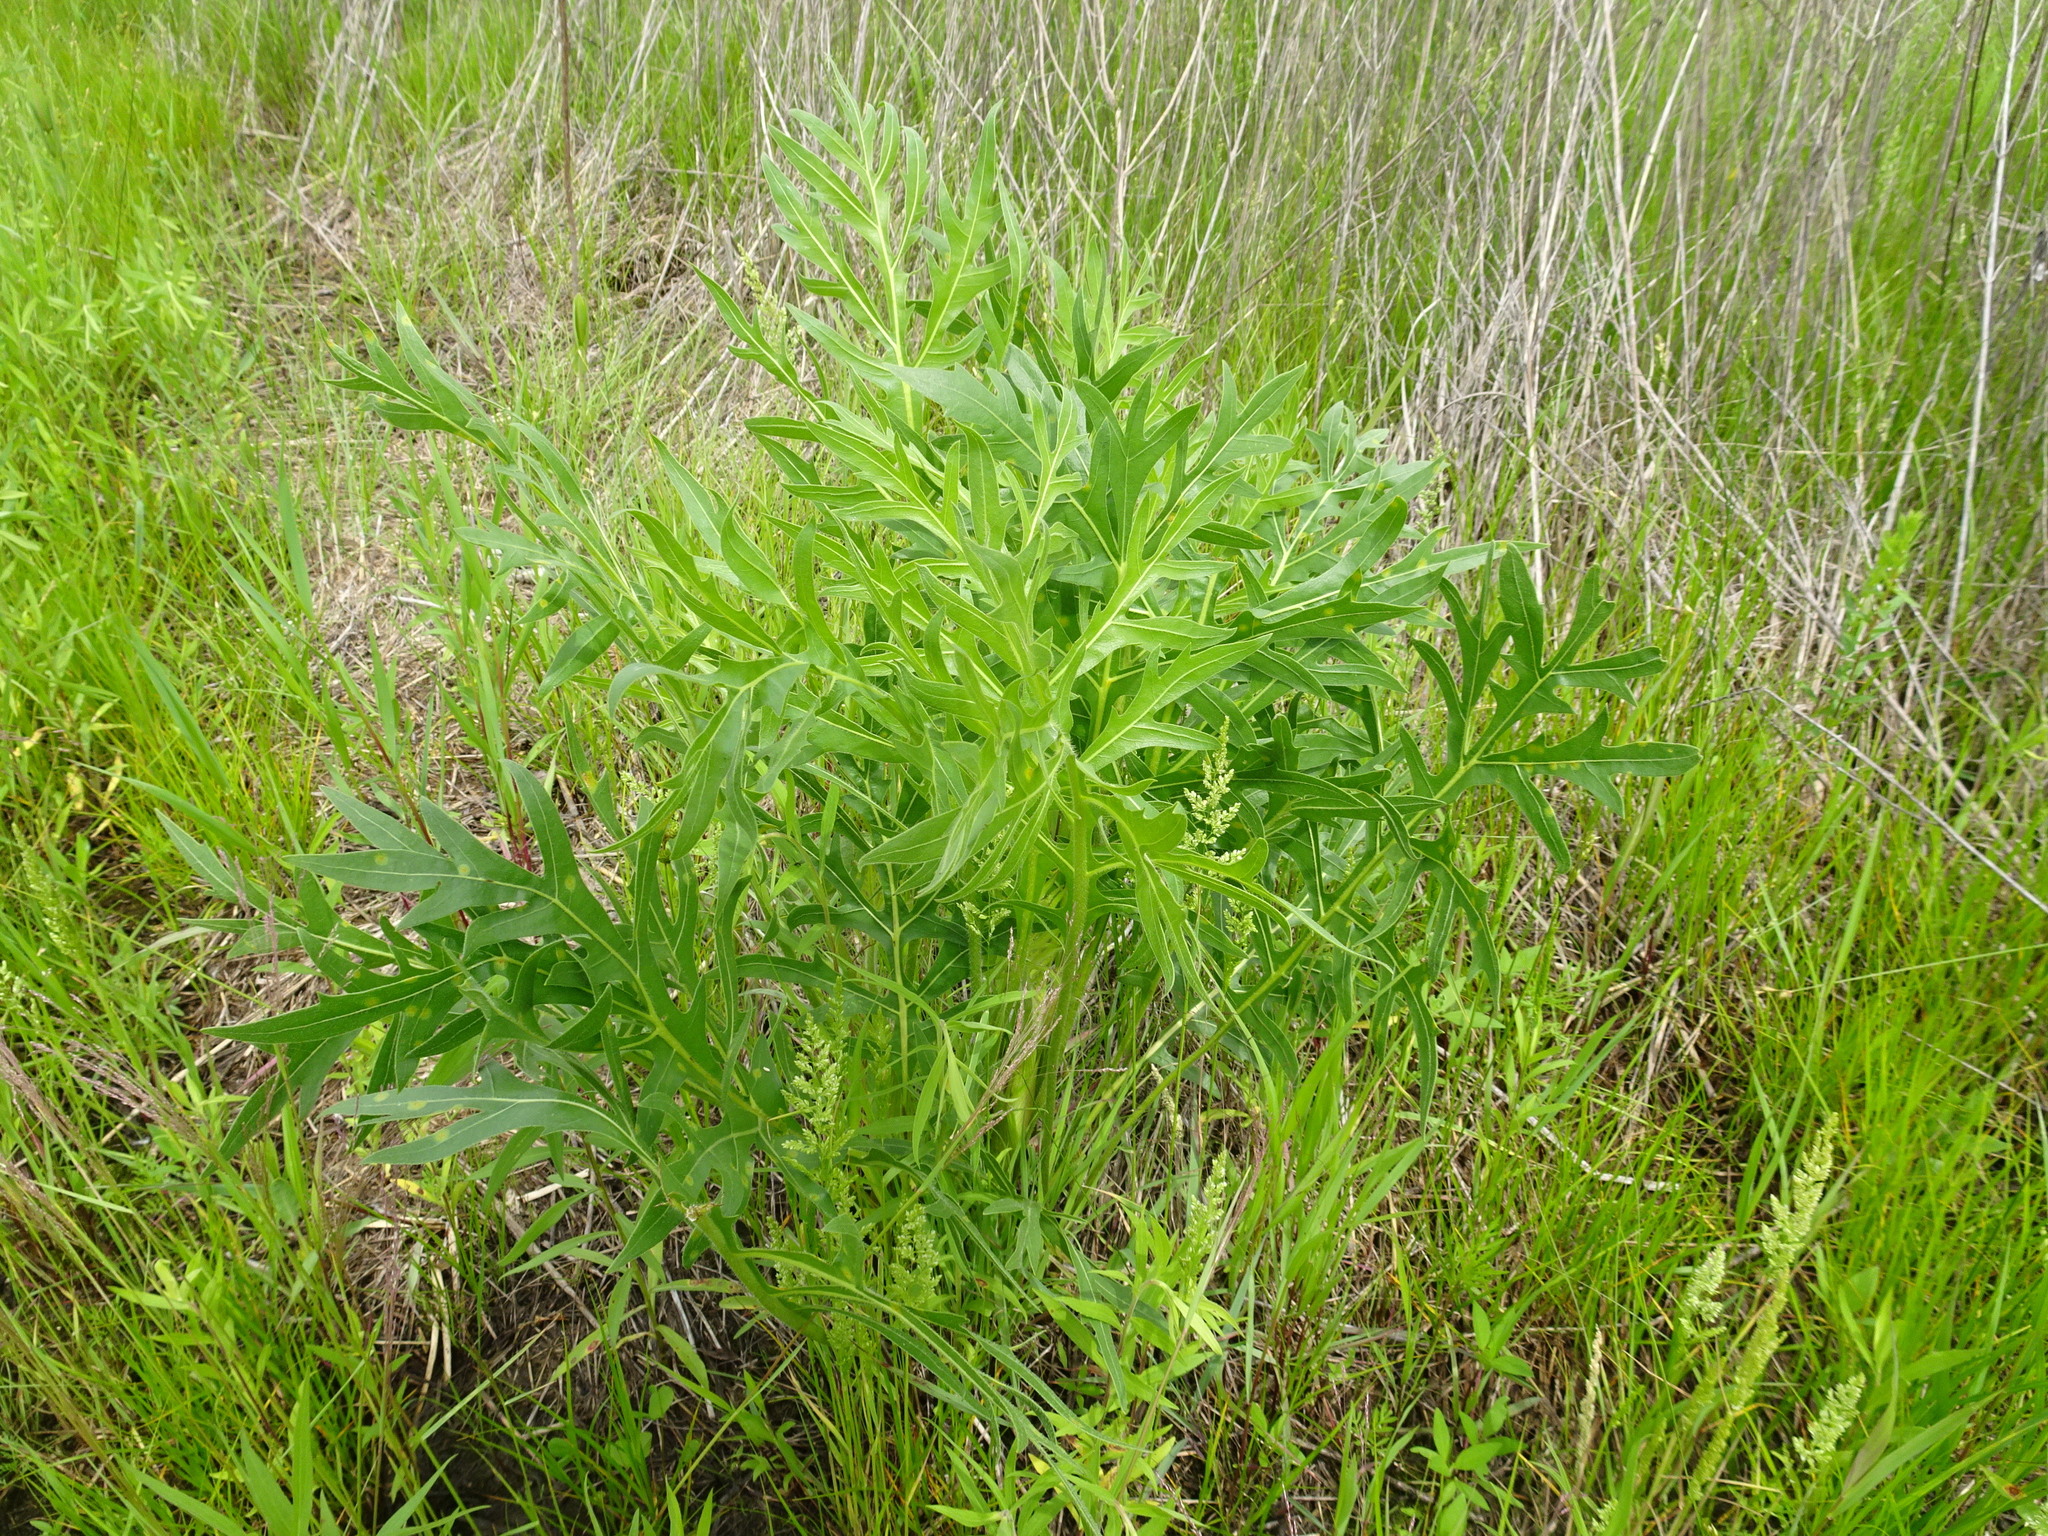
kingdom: Plantae
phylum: Tracheophyta
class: Magnoliopsida
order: Asterales
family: Asteraceae
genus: Silphium
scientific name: Silphium laciniatum
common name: Polarplant
